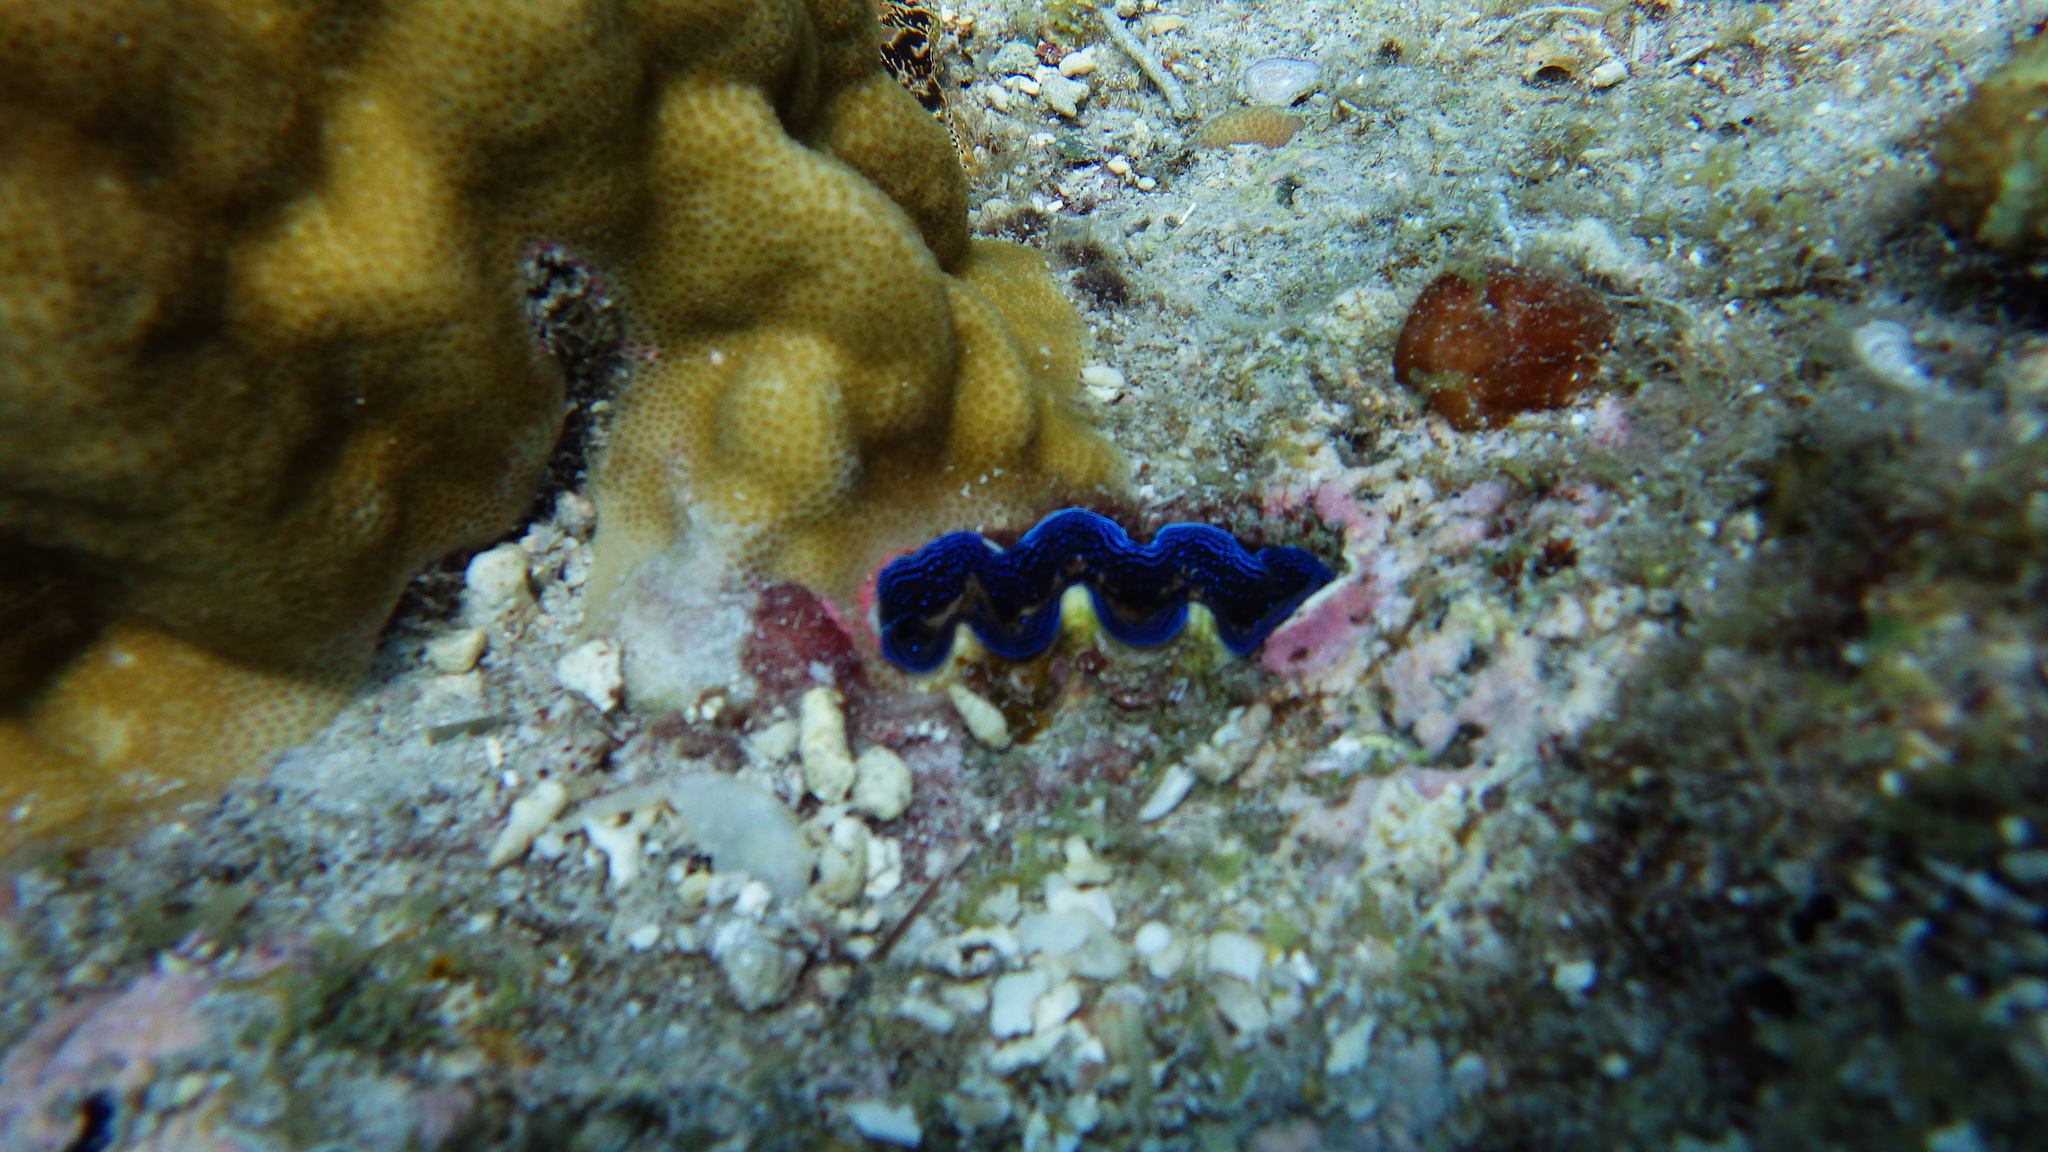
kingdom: Animalia
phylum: Mollusca
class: Bivalvia
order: Cardiida
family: Cardiidae
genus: Tridacna
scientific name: Tridacna crocea
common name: Boring clam
